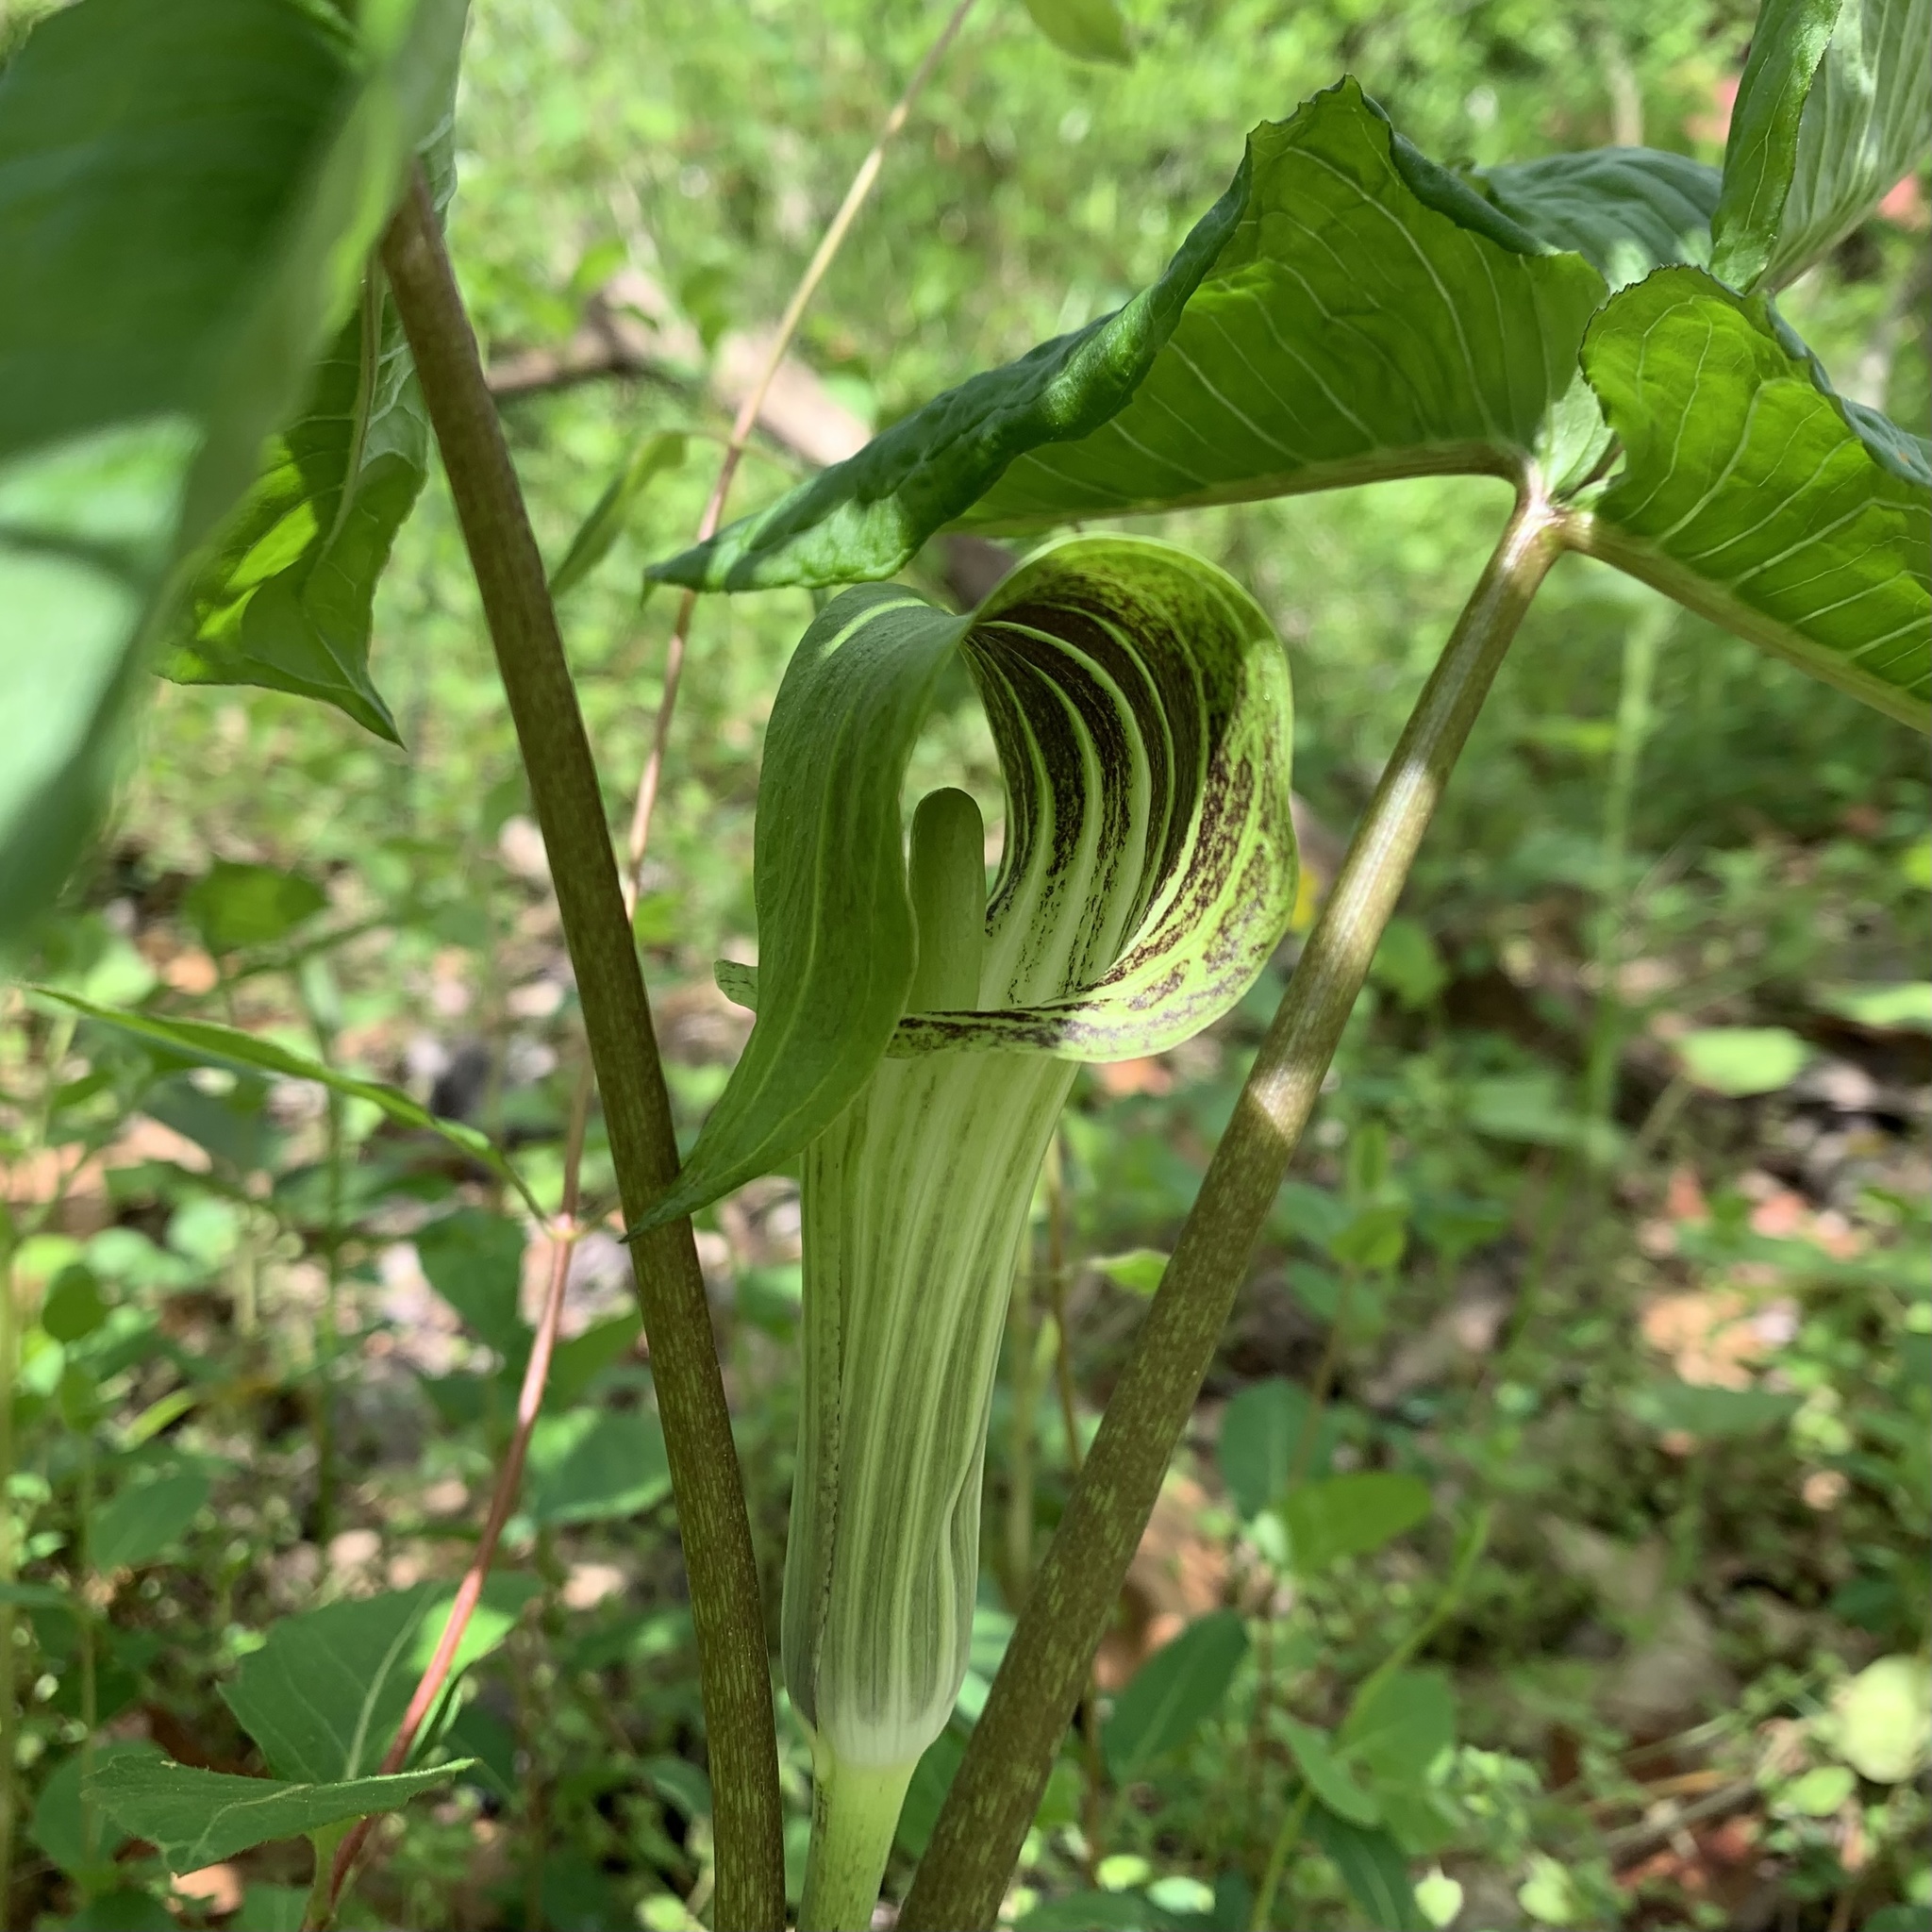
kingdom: Plantae
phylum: Tracheophyta
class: Liliopsida
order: Alismatales
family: Araceae
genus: Arisaema
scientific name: Arisaema triphyllum
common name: Jack-in-the-pulpit
